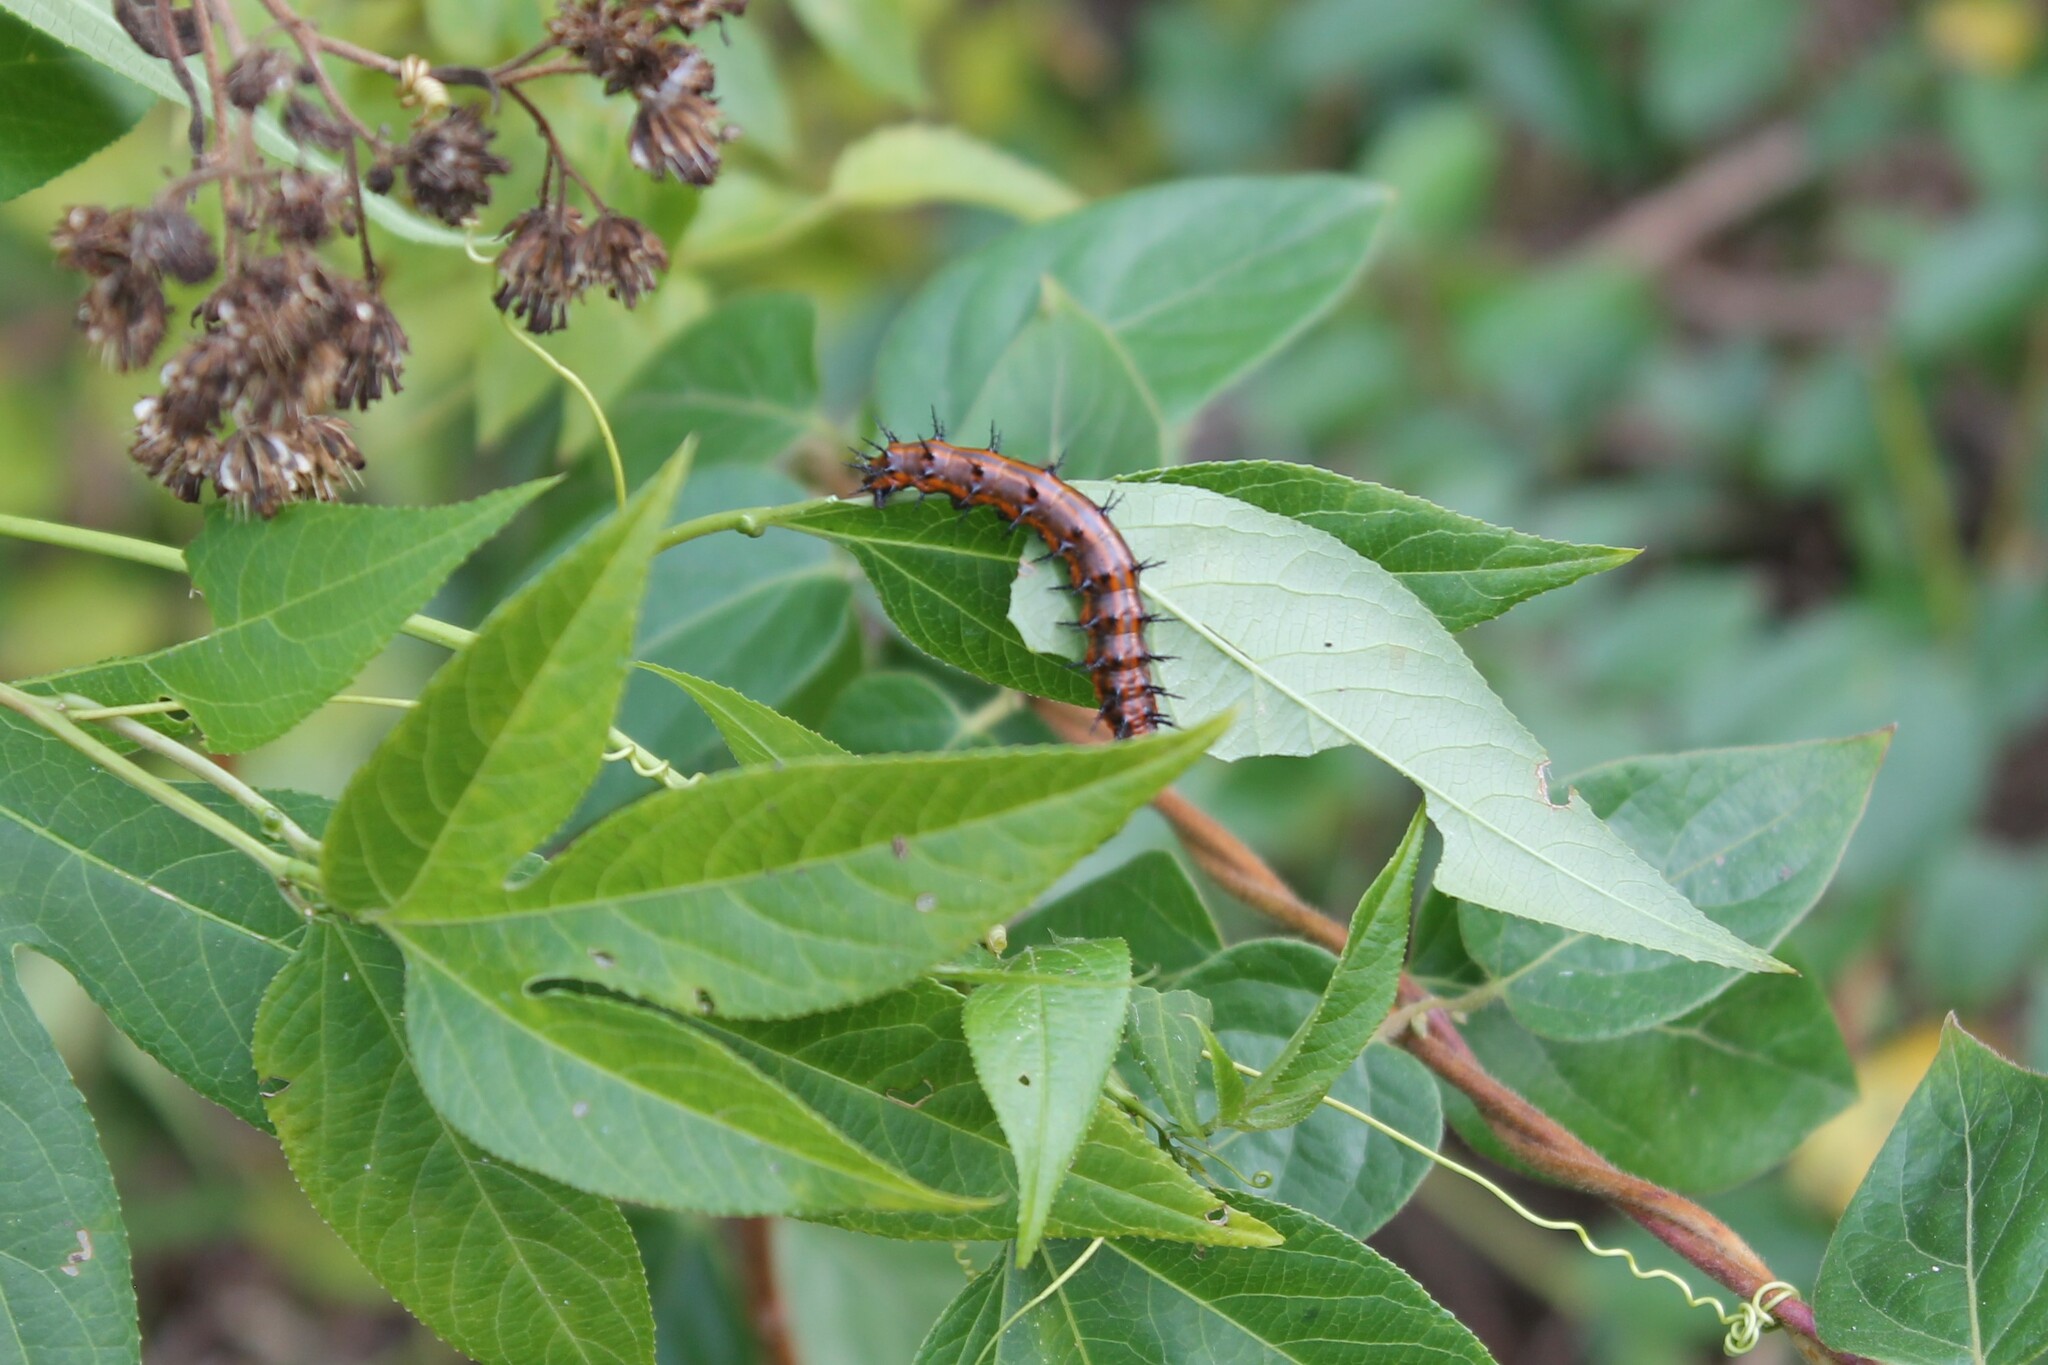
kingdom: Animalia
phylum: Arthropoda
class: Insecta
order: Lepidoptera
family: Nymphalidae
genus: Dione
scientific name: Dione vanillae
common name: Gulf fritillary
